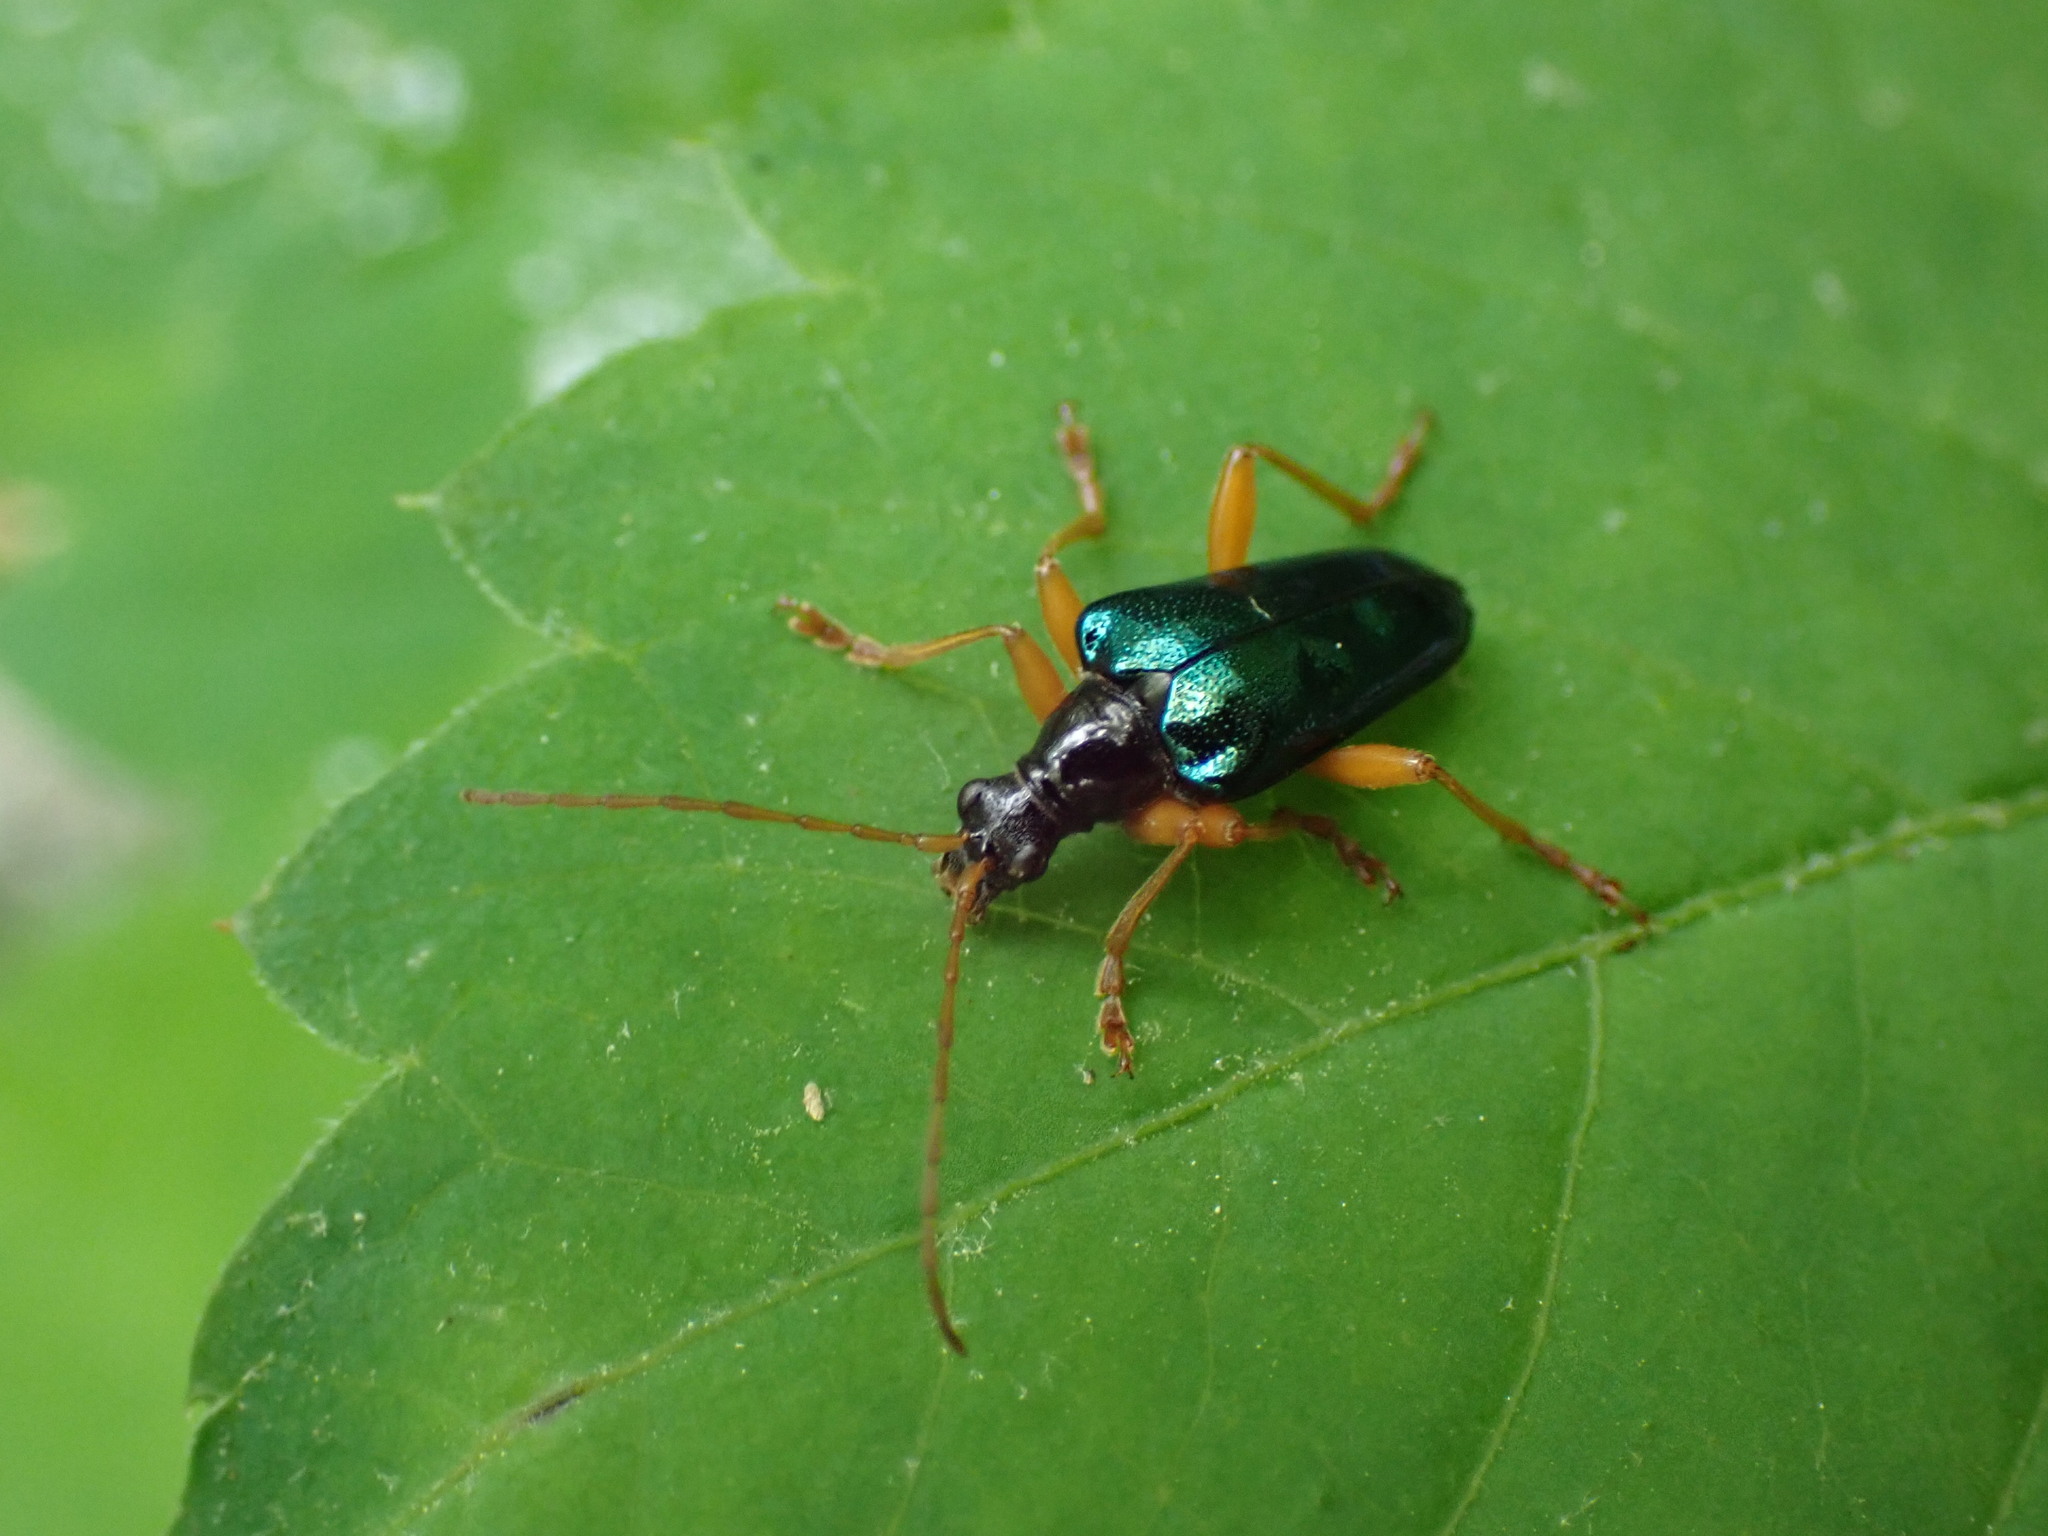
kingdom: Animalia
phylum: Arthropoda
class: Insecta
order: Coleoptera
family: Cerambycidae
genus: Gaurotes
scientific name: Gaurotes cyanipennis
